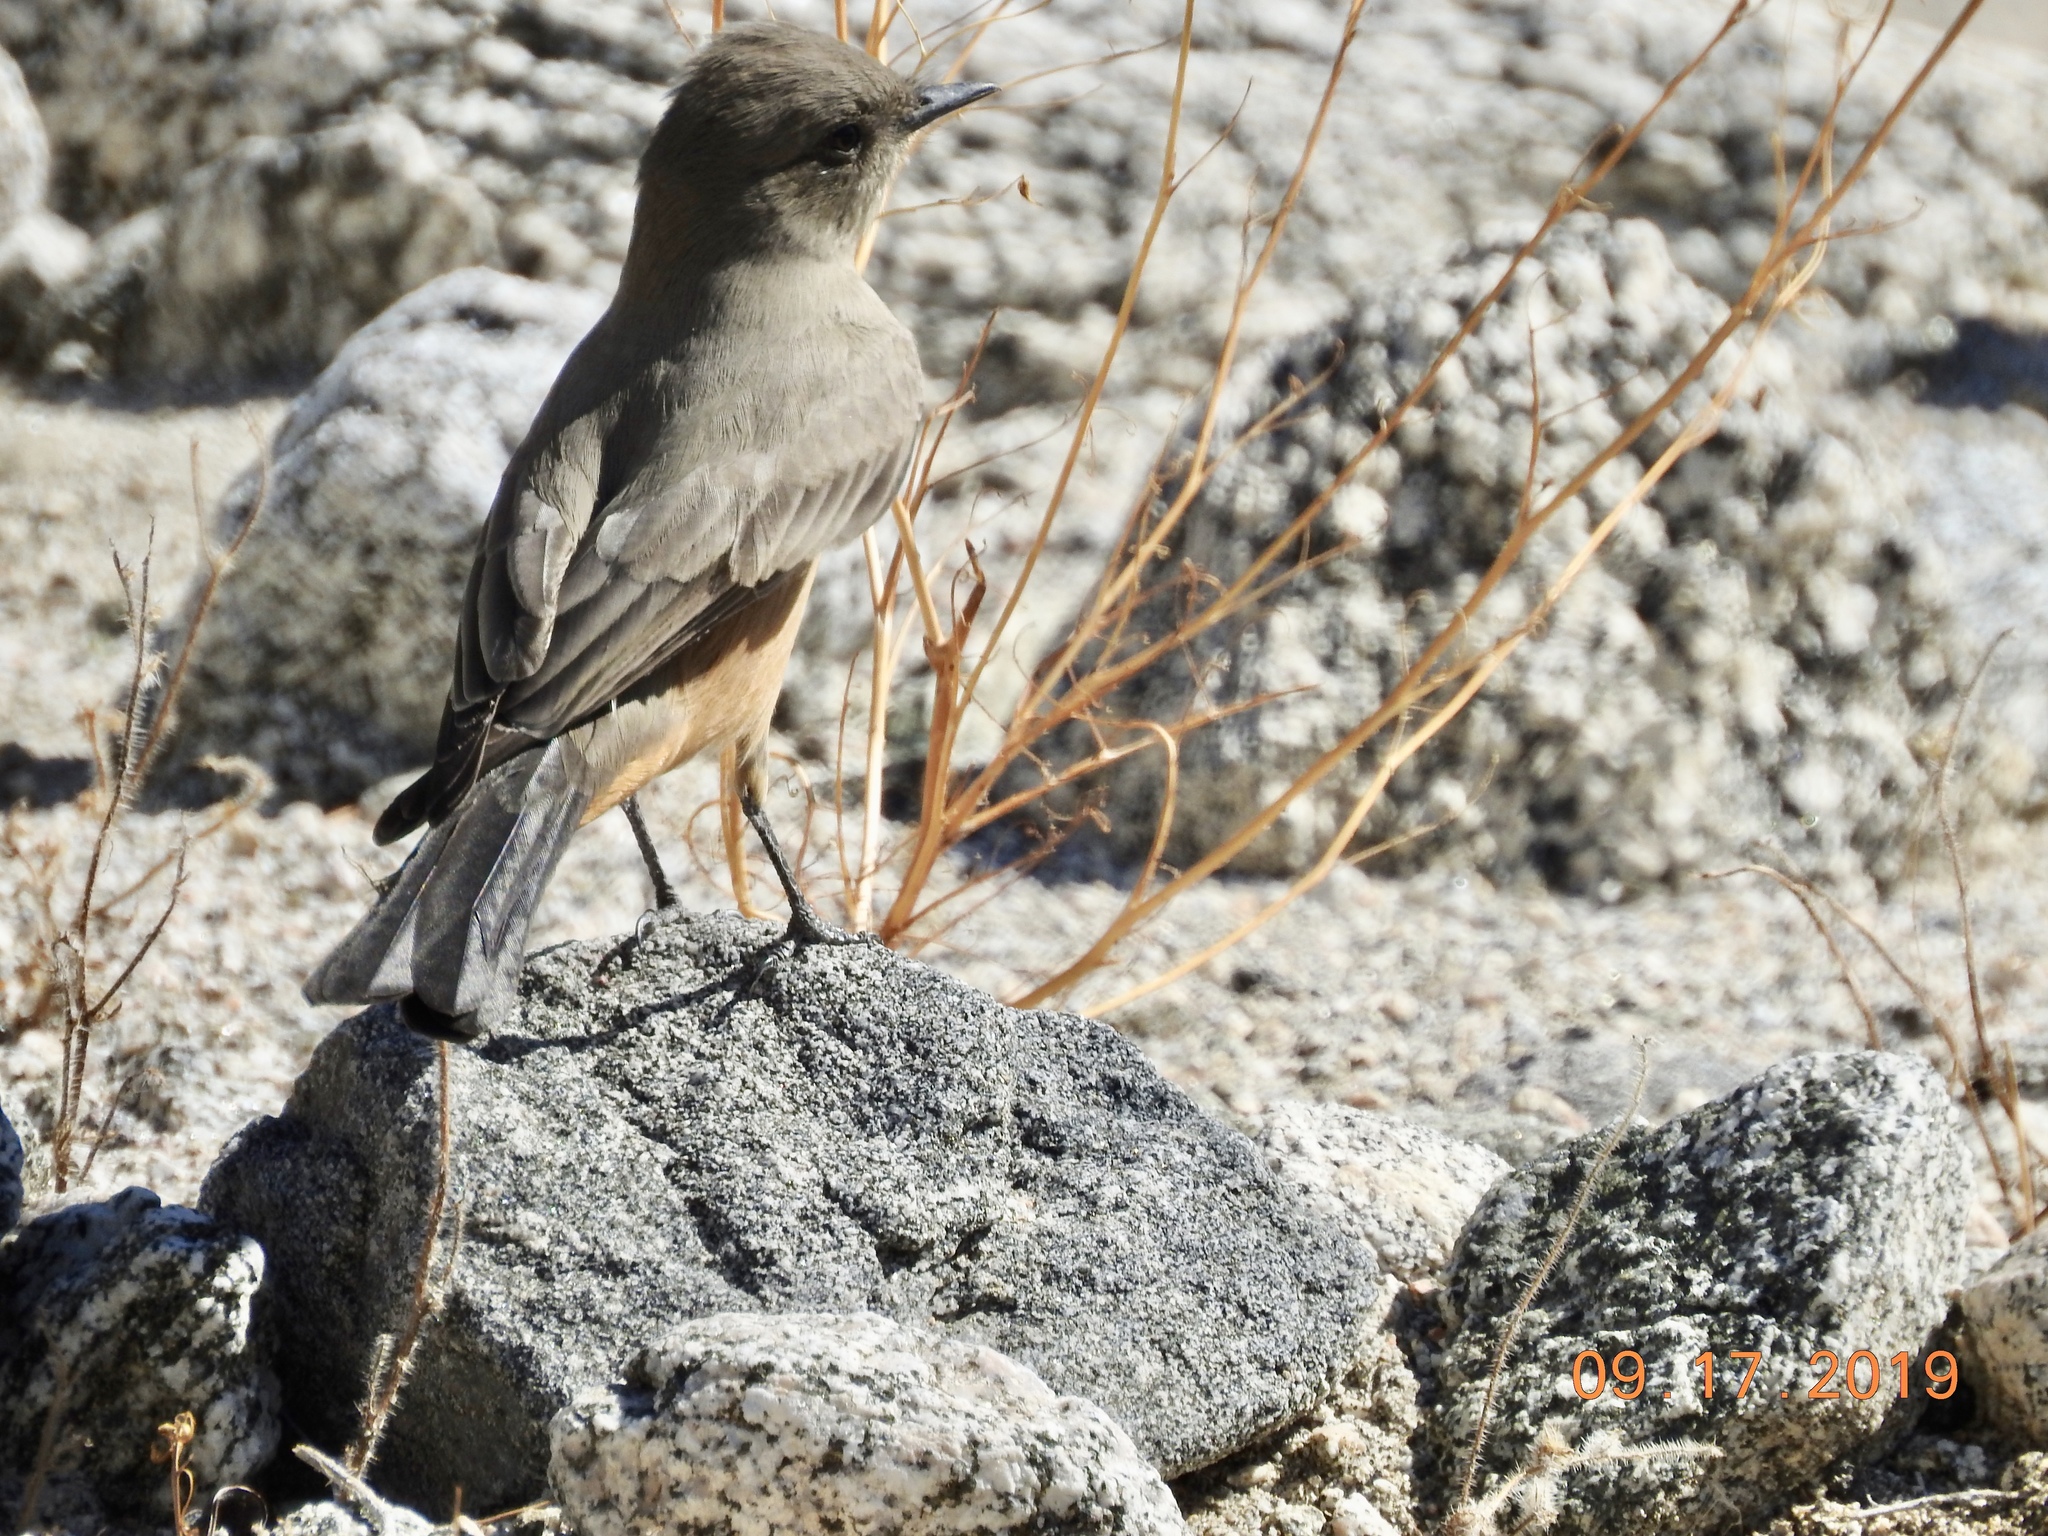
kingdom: Animalia
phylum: Chordata
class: Aves
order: Passeriformes
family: Tyrannidae
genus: Sayornis
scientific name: Sayornis saya
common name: Say's phoebe
